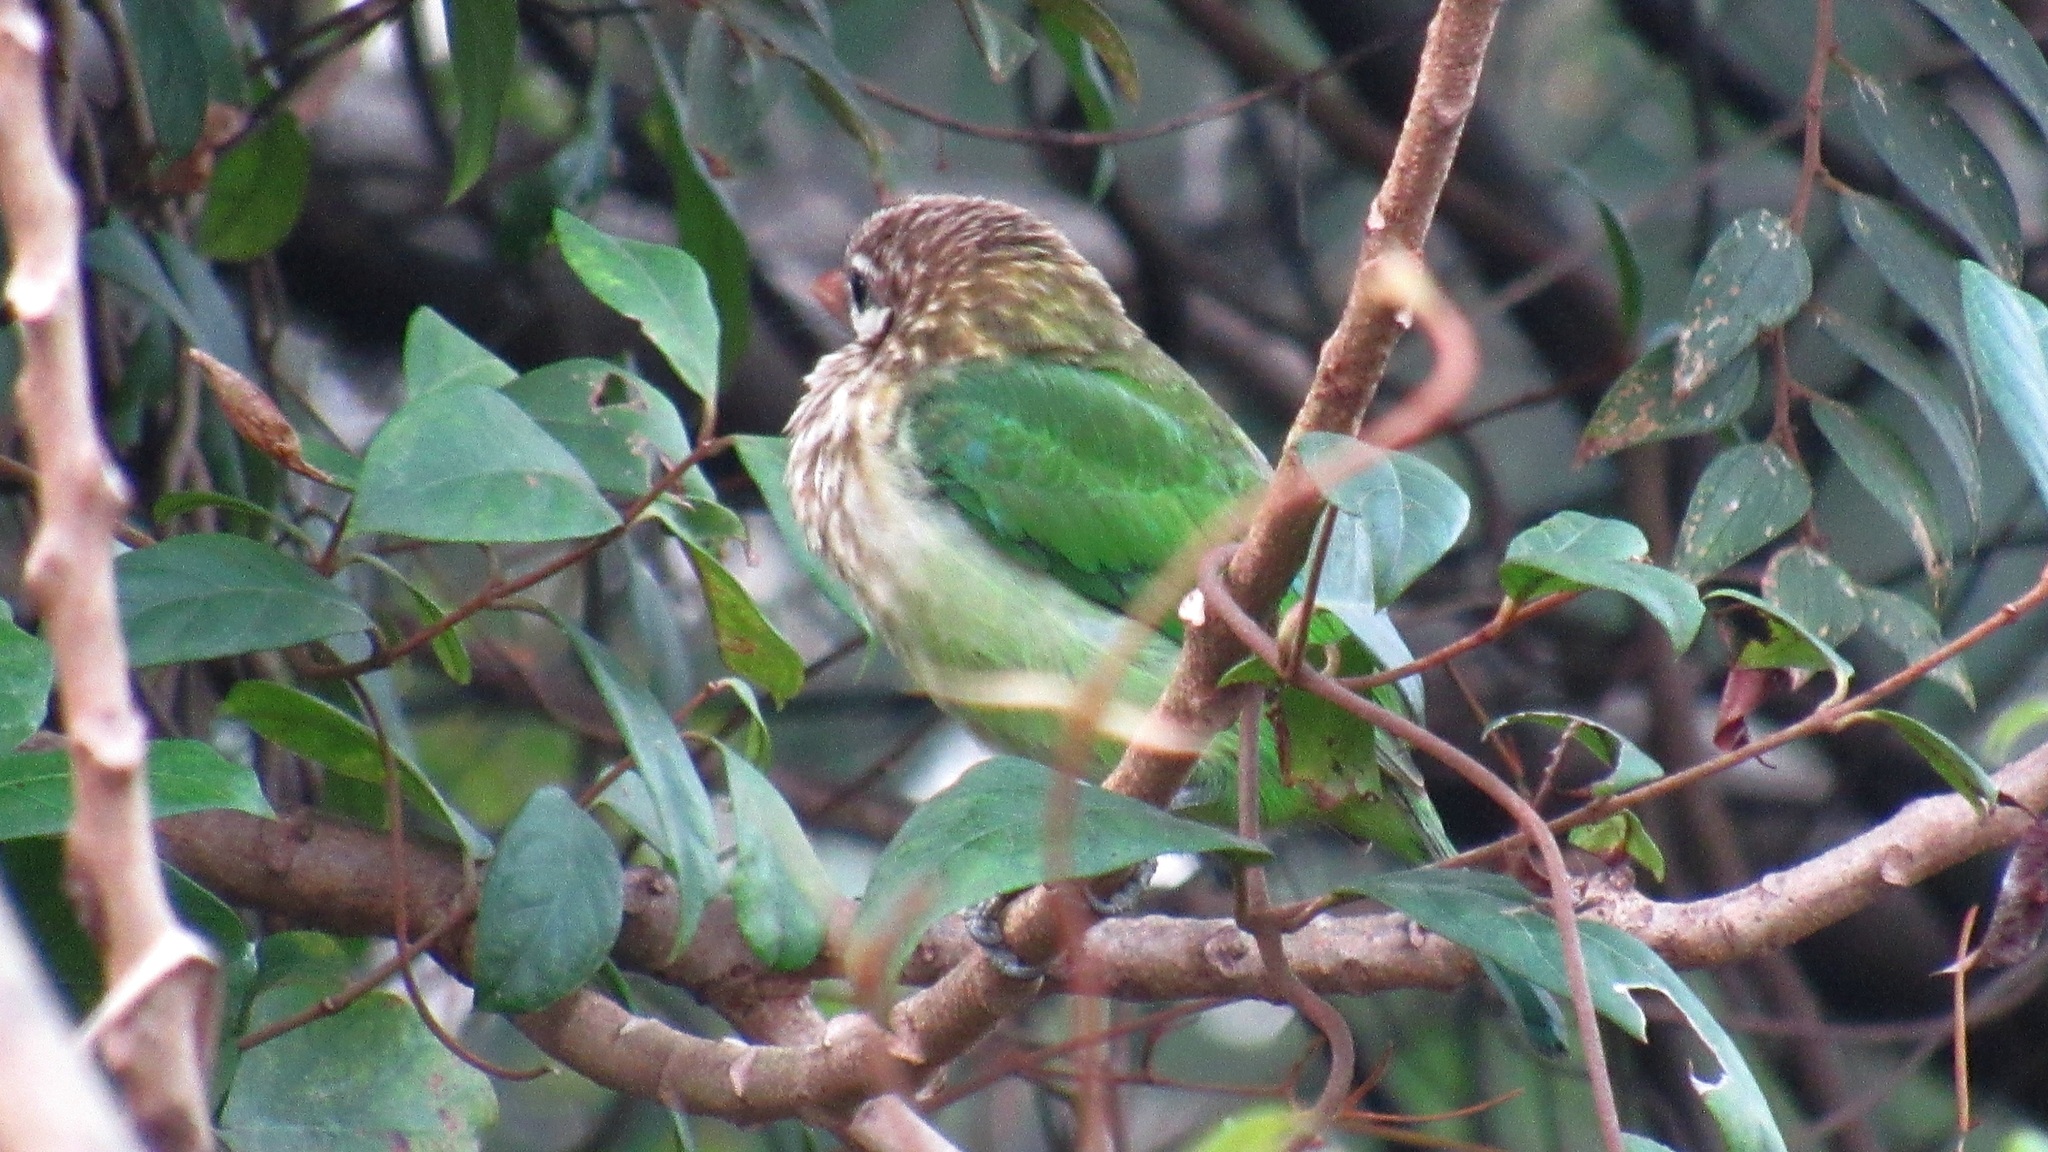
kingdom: Animalia
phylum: Chordata
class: Aves
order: Piciformes
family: Megalaimidae
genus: Psilopogon
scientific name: Psilopogon viridis
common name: White-cheeked barbet
